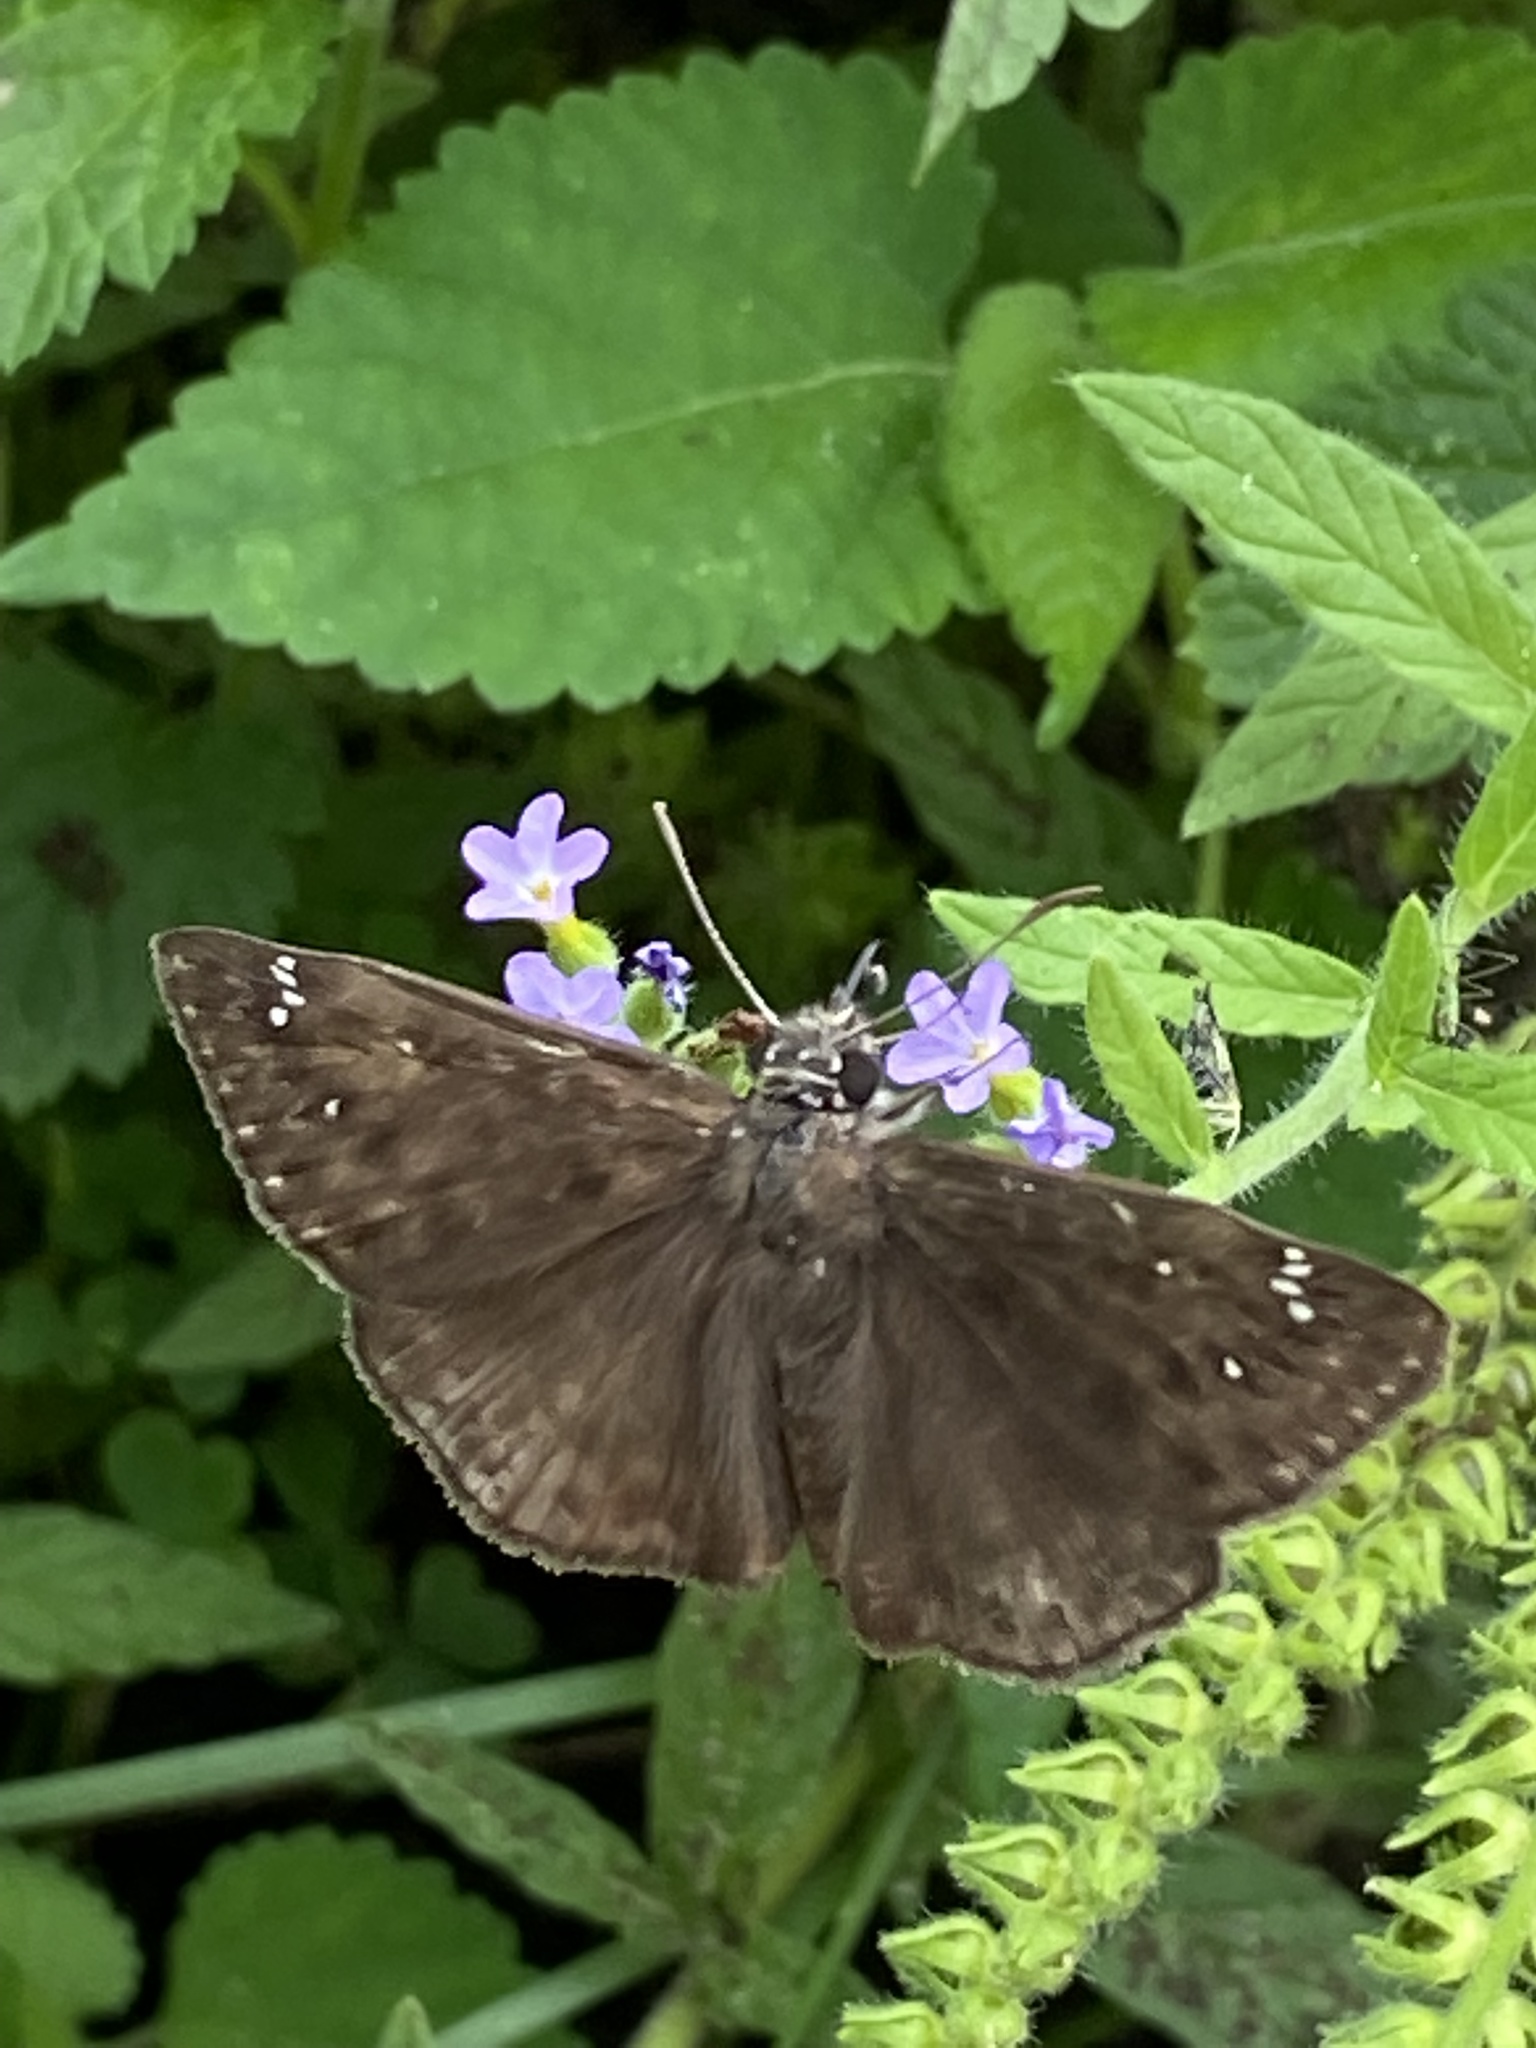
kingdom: Animalia
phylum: Arthropoda
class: Insecta
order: Lepidoptera
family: Hesperiidae
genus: Erynnis
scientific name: Erynnis horatius
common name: Horace's duskywing
